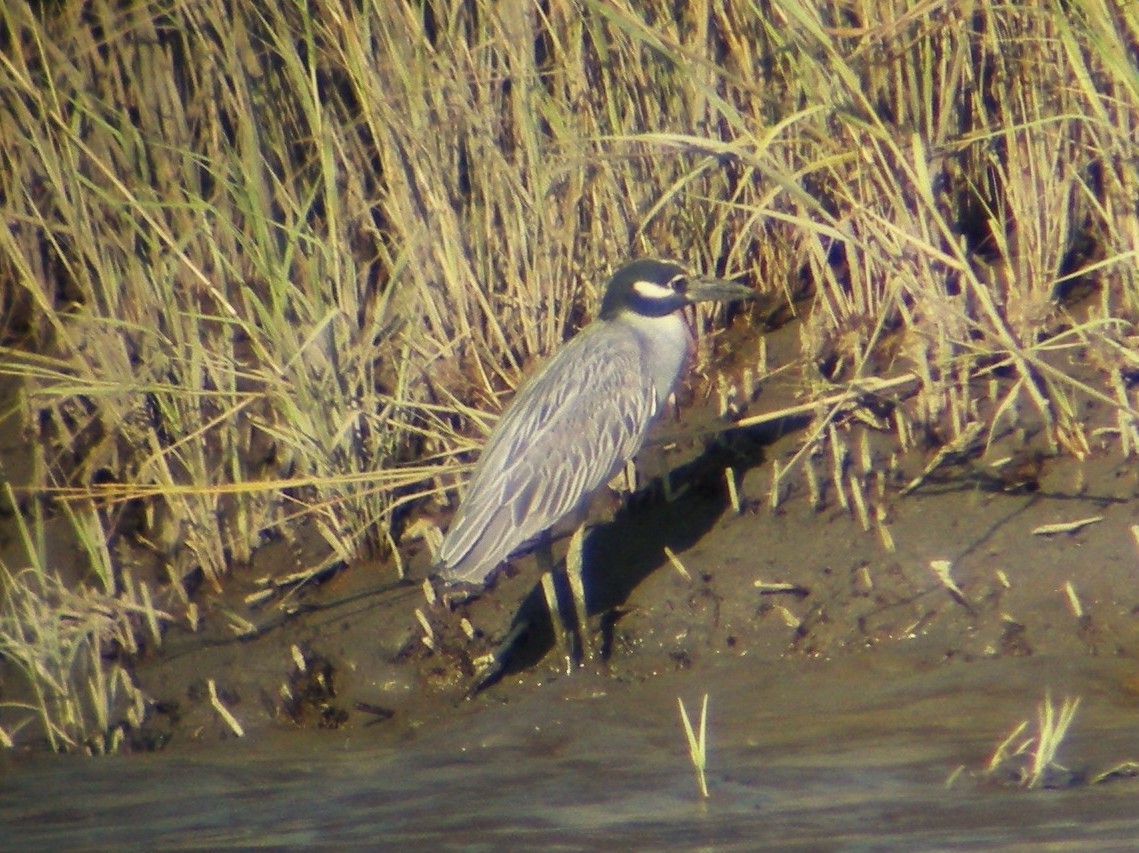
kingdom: Animalia
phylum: Chordata
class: Aves
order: Pelecaniformes
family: Ardeidae
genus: Nyctanassa
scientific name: Nyctanassa violacea
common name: Yellow-crowned night heron
